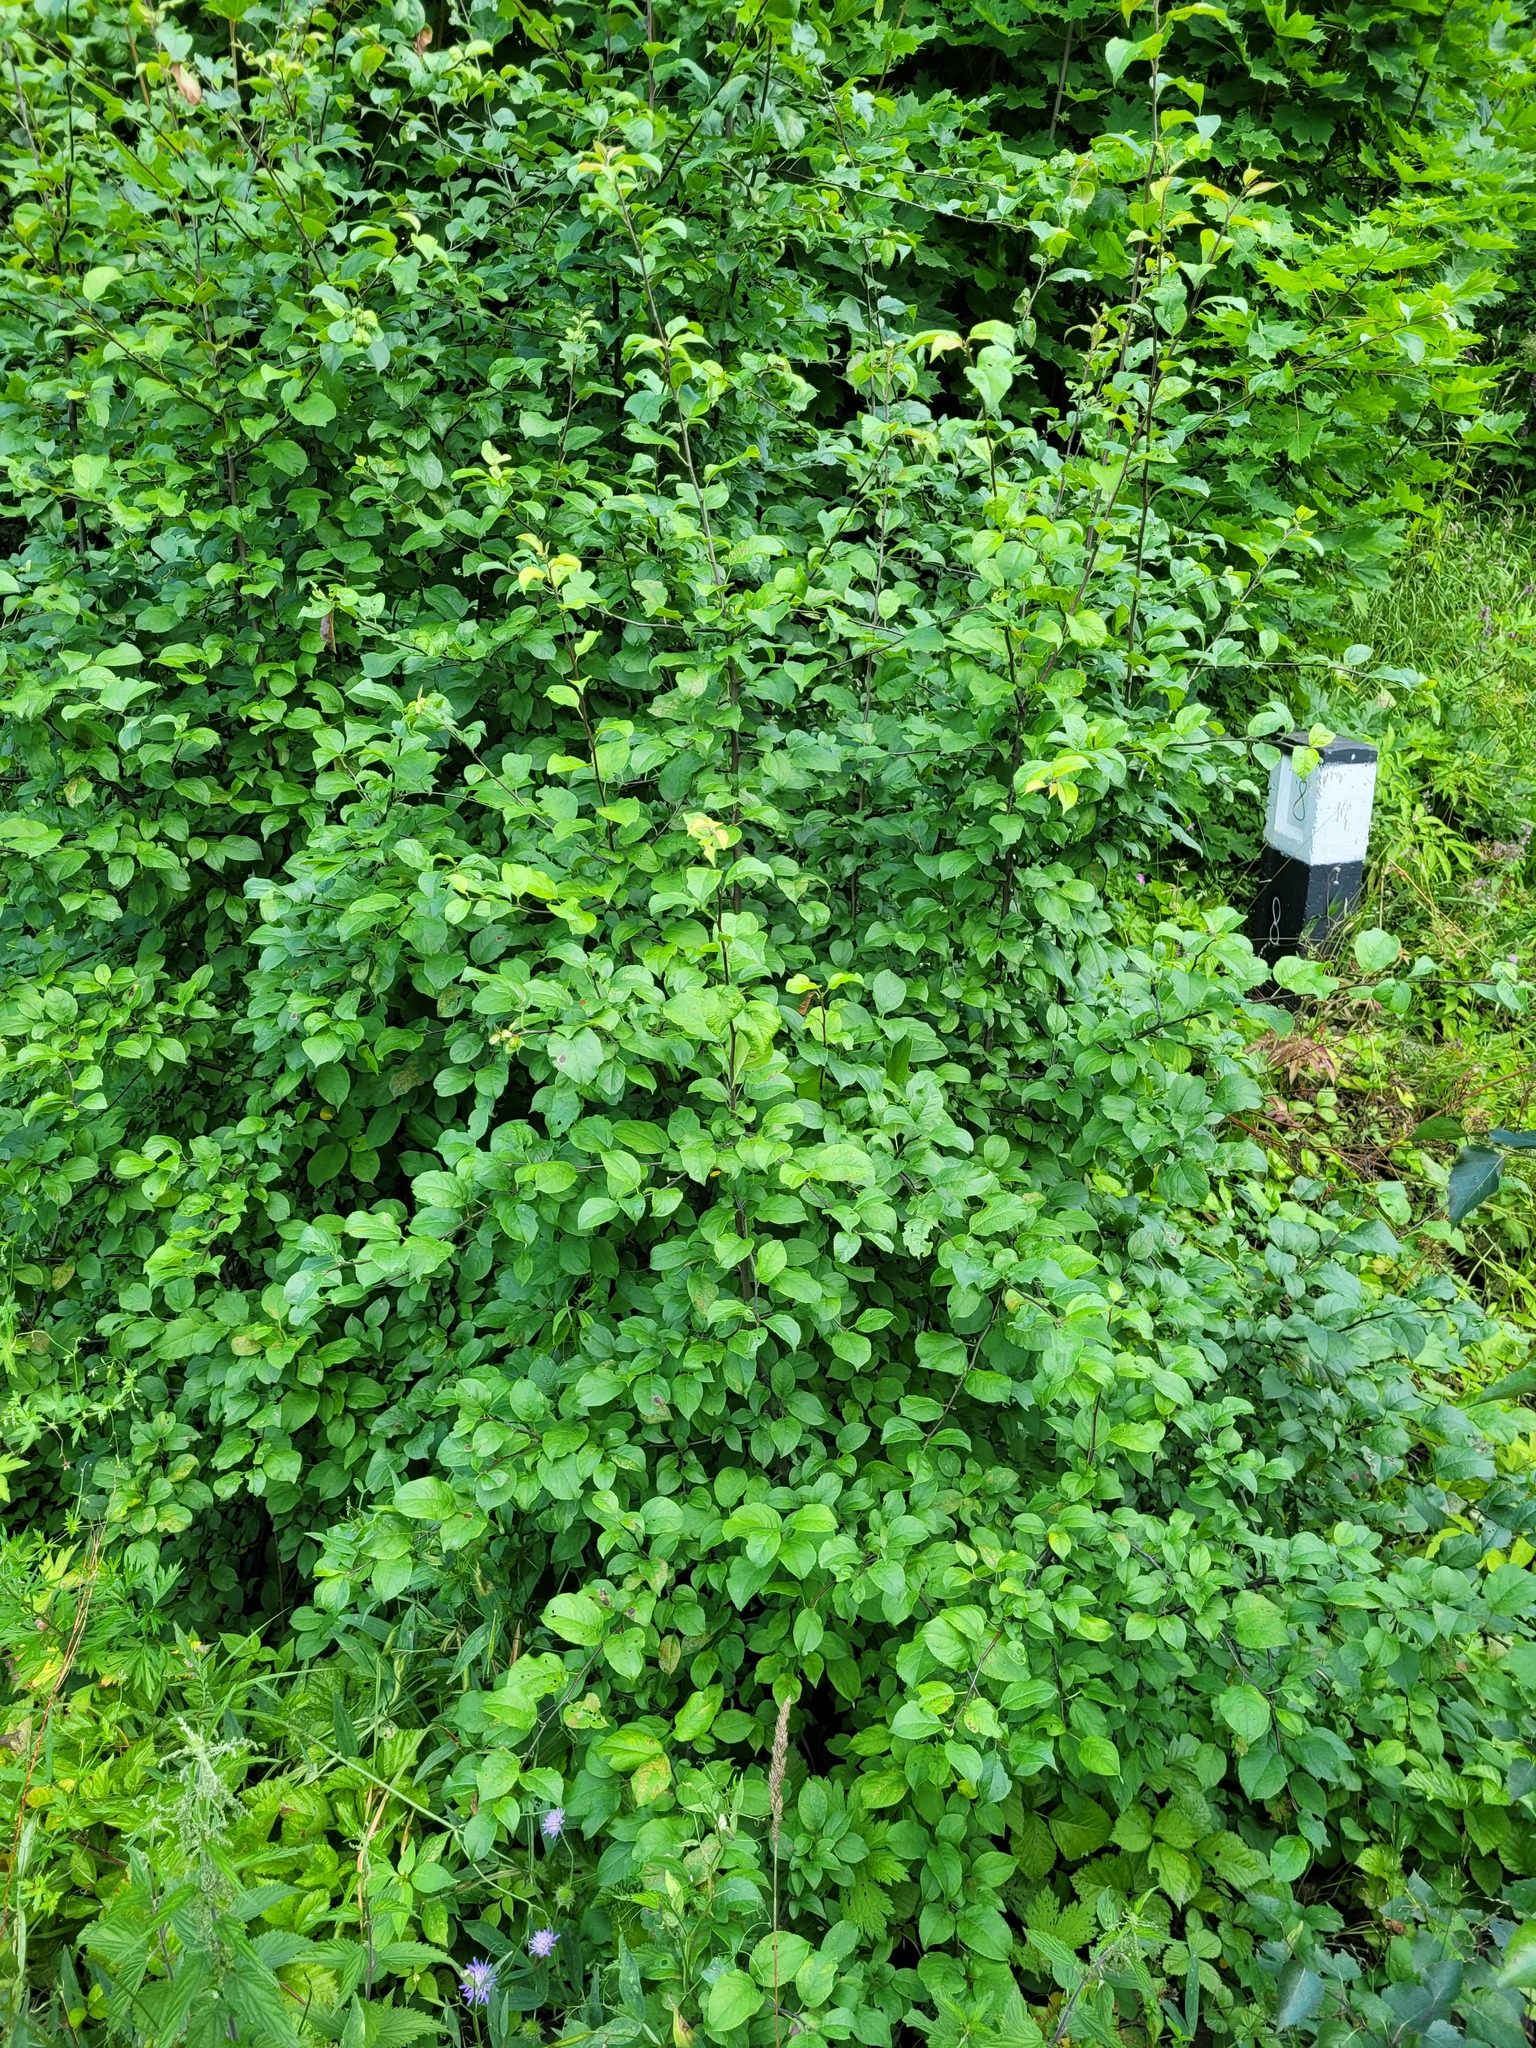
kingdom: Plantae
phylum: Tracheophyta
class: Magnoliopsida
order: Rosales
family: Rosaceae
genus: Malus
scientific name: Malus domestica
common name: Apple
